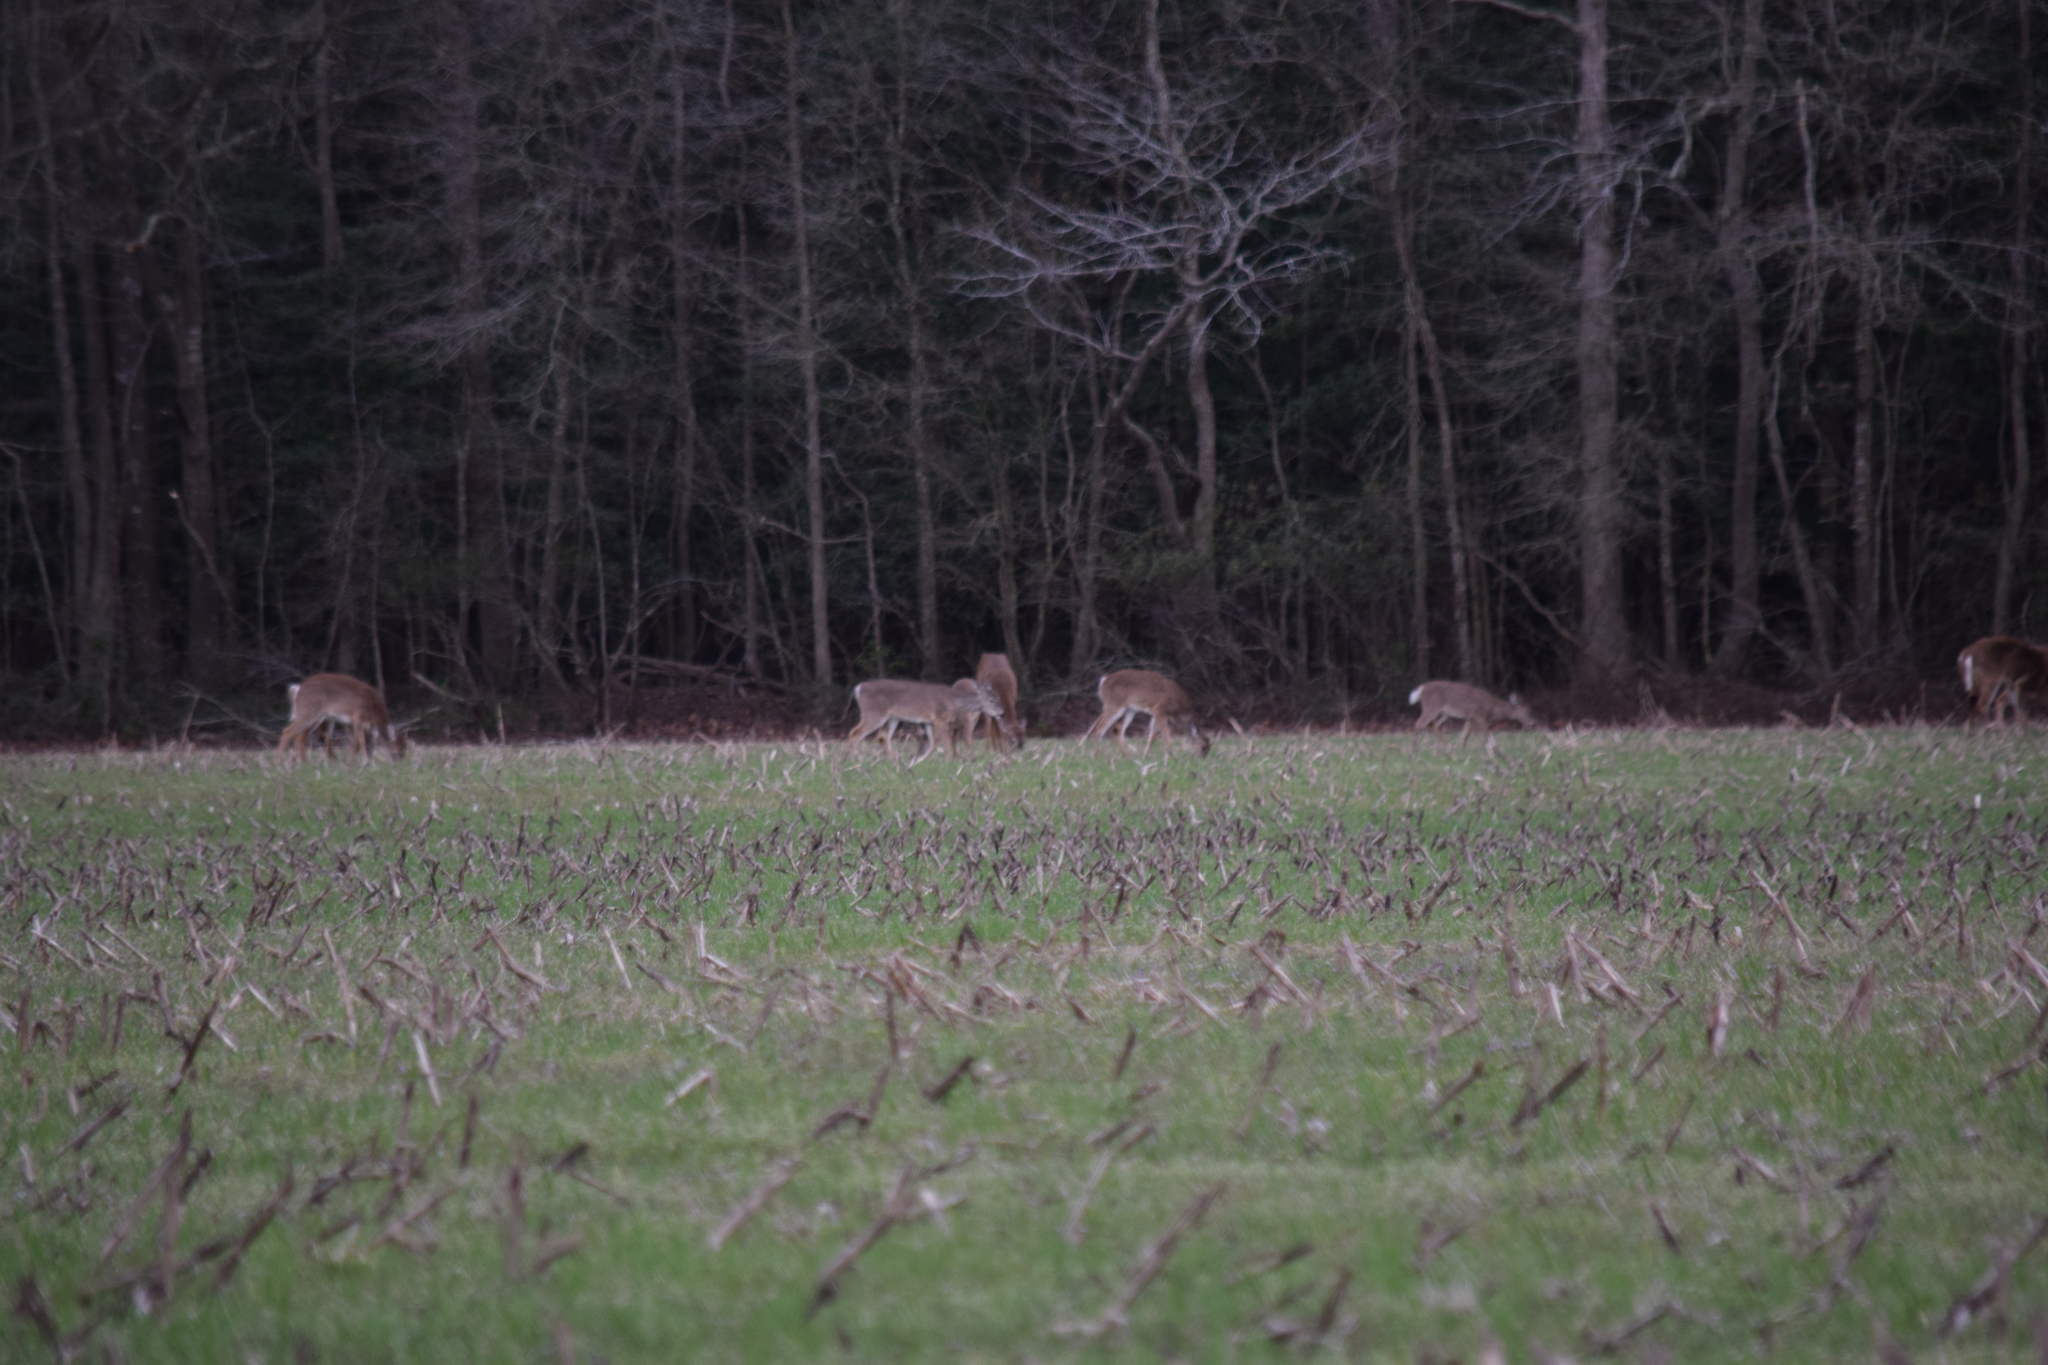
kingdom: Animalia
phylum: Chordata
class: Mammalia
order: Artiodactyla
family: Cervidae
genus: Odocoileus
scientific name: Odocoileus virginianus
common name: White-tailed deer
